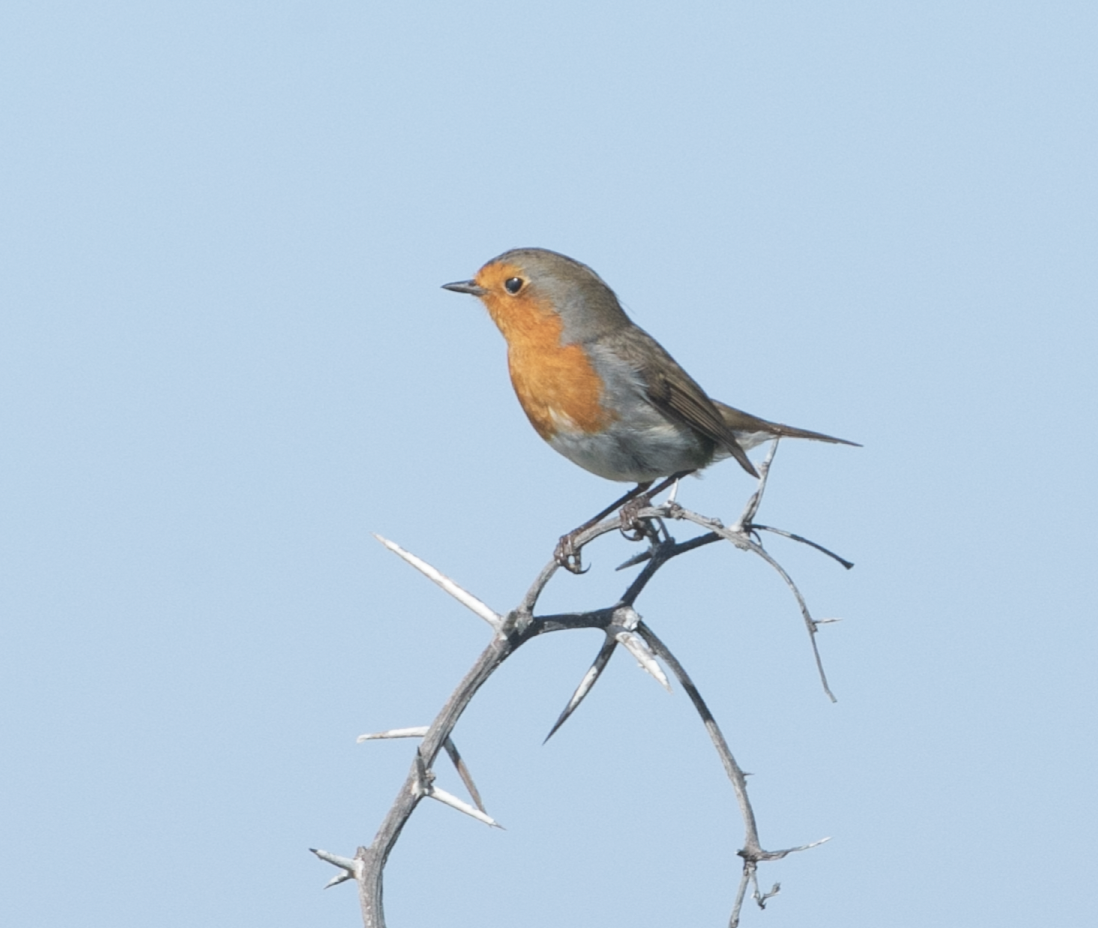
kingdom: Animalia
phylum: Chordata
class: Aves
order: Passeriformes
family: Muscicapidae
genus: Erithacus
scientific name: Erithacus rubecula
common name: European robin
